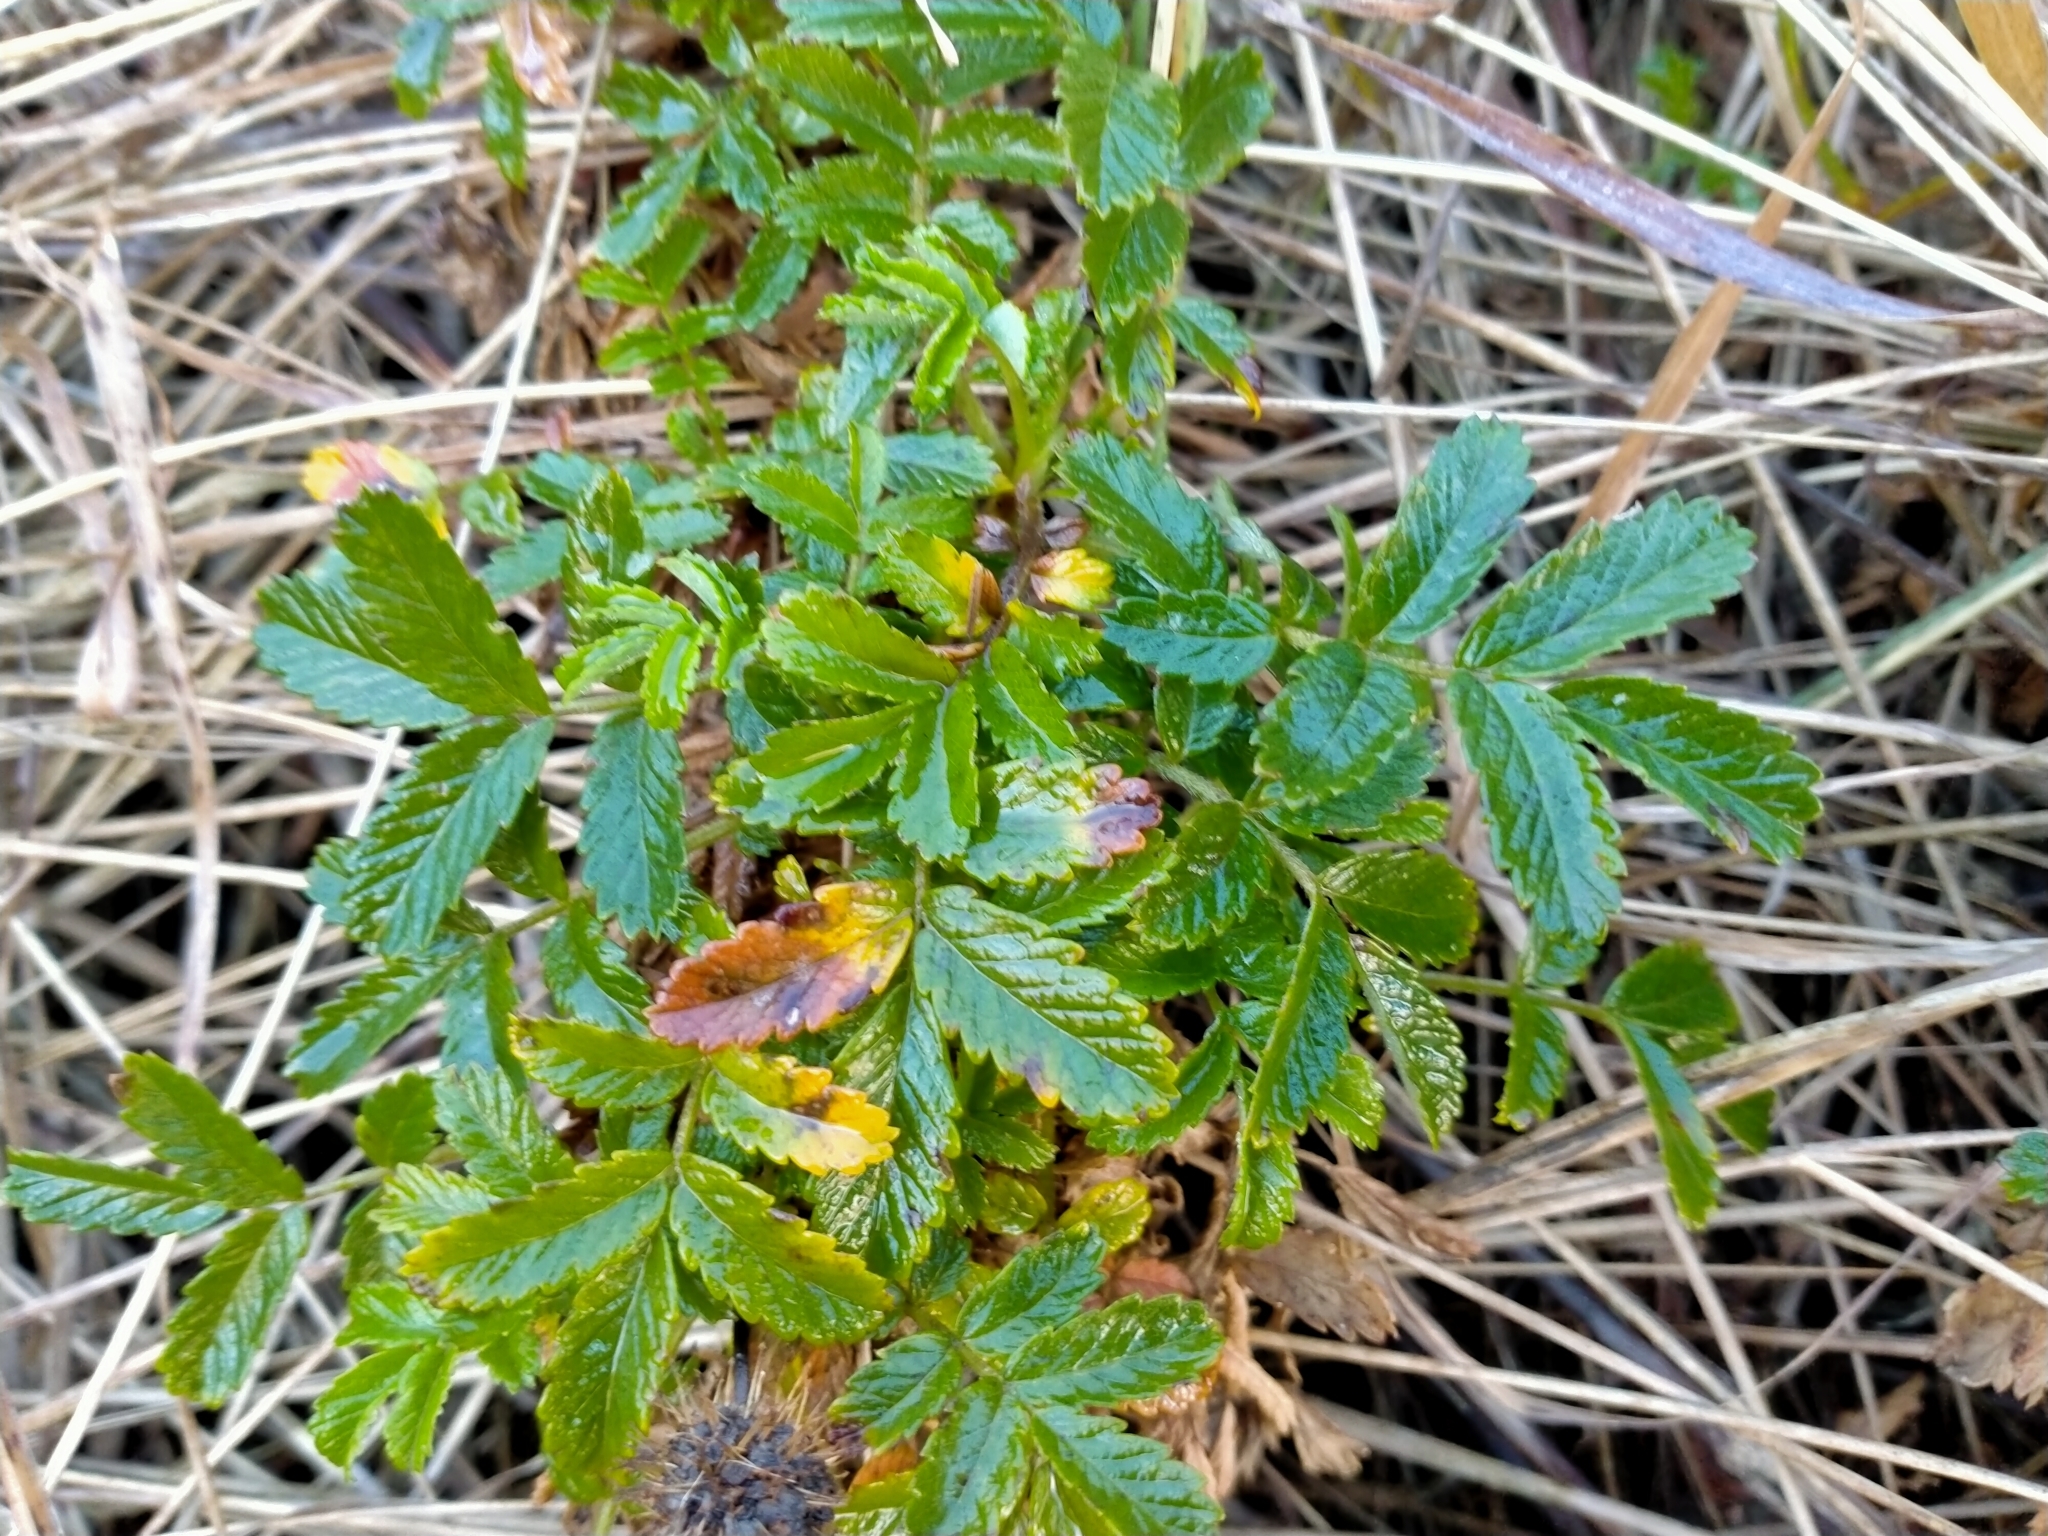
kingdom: Plantae
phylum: Tracheophyta
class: Magnoliopsida
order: Rosales
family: Rosaceae
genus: Acaena
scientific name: Acaena pallida
